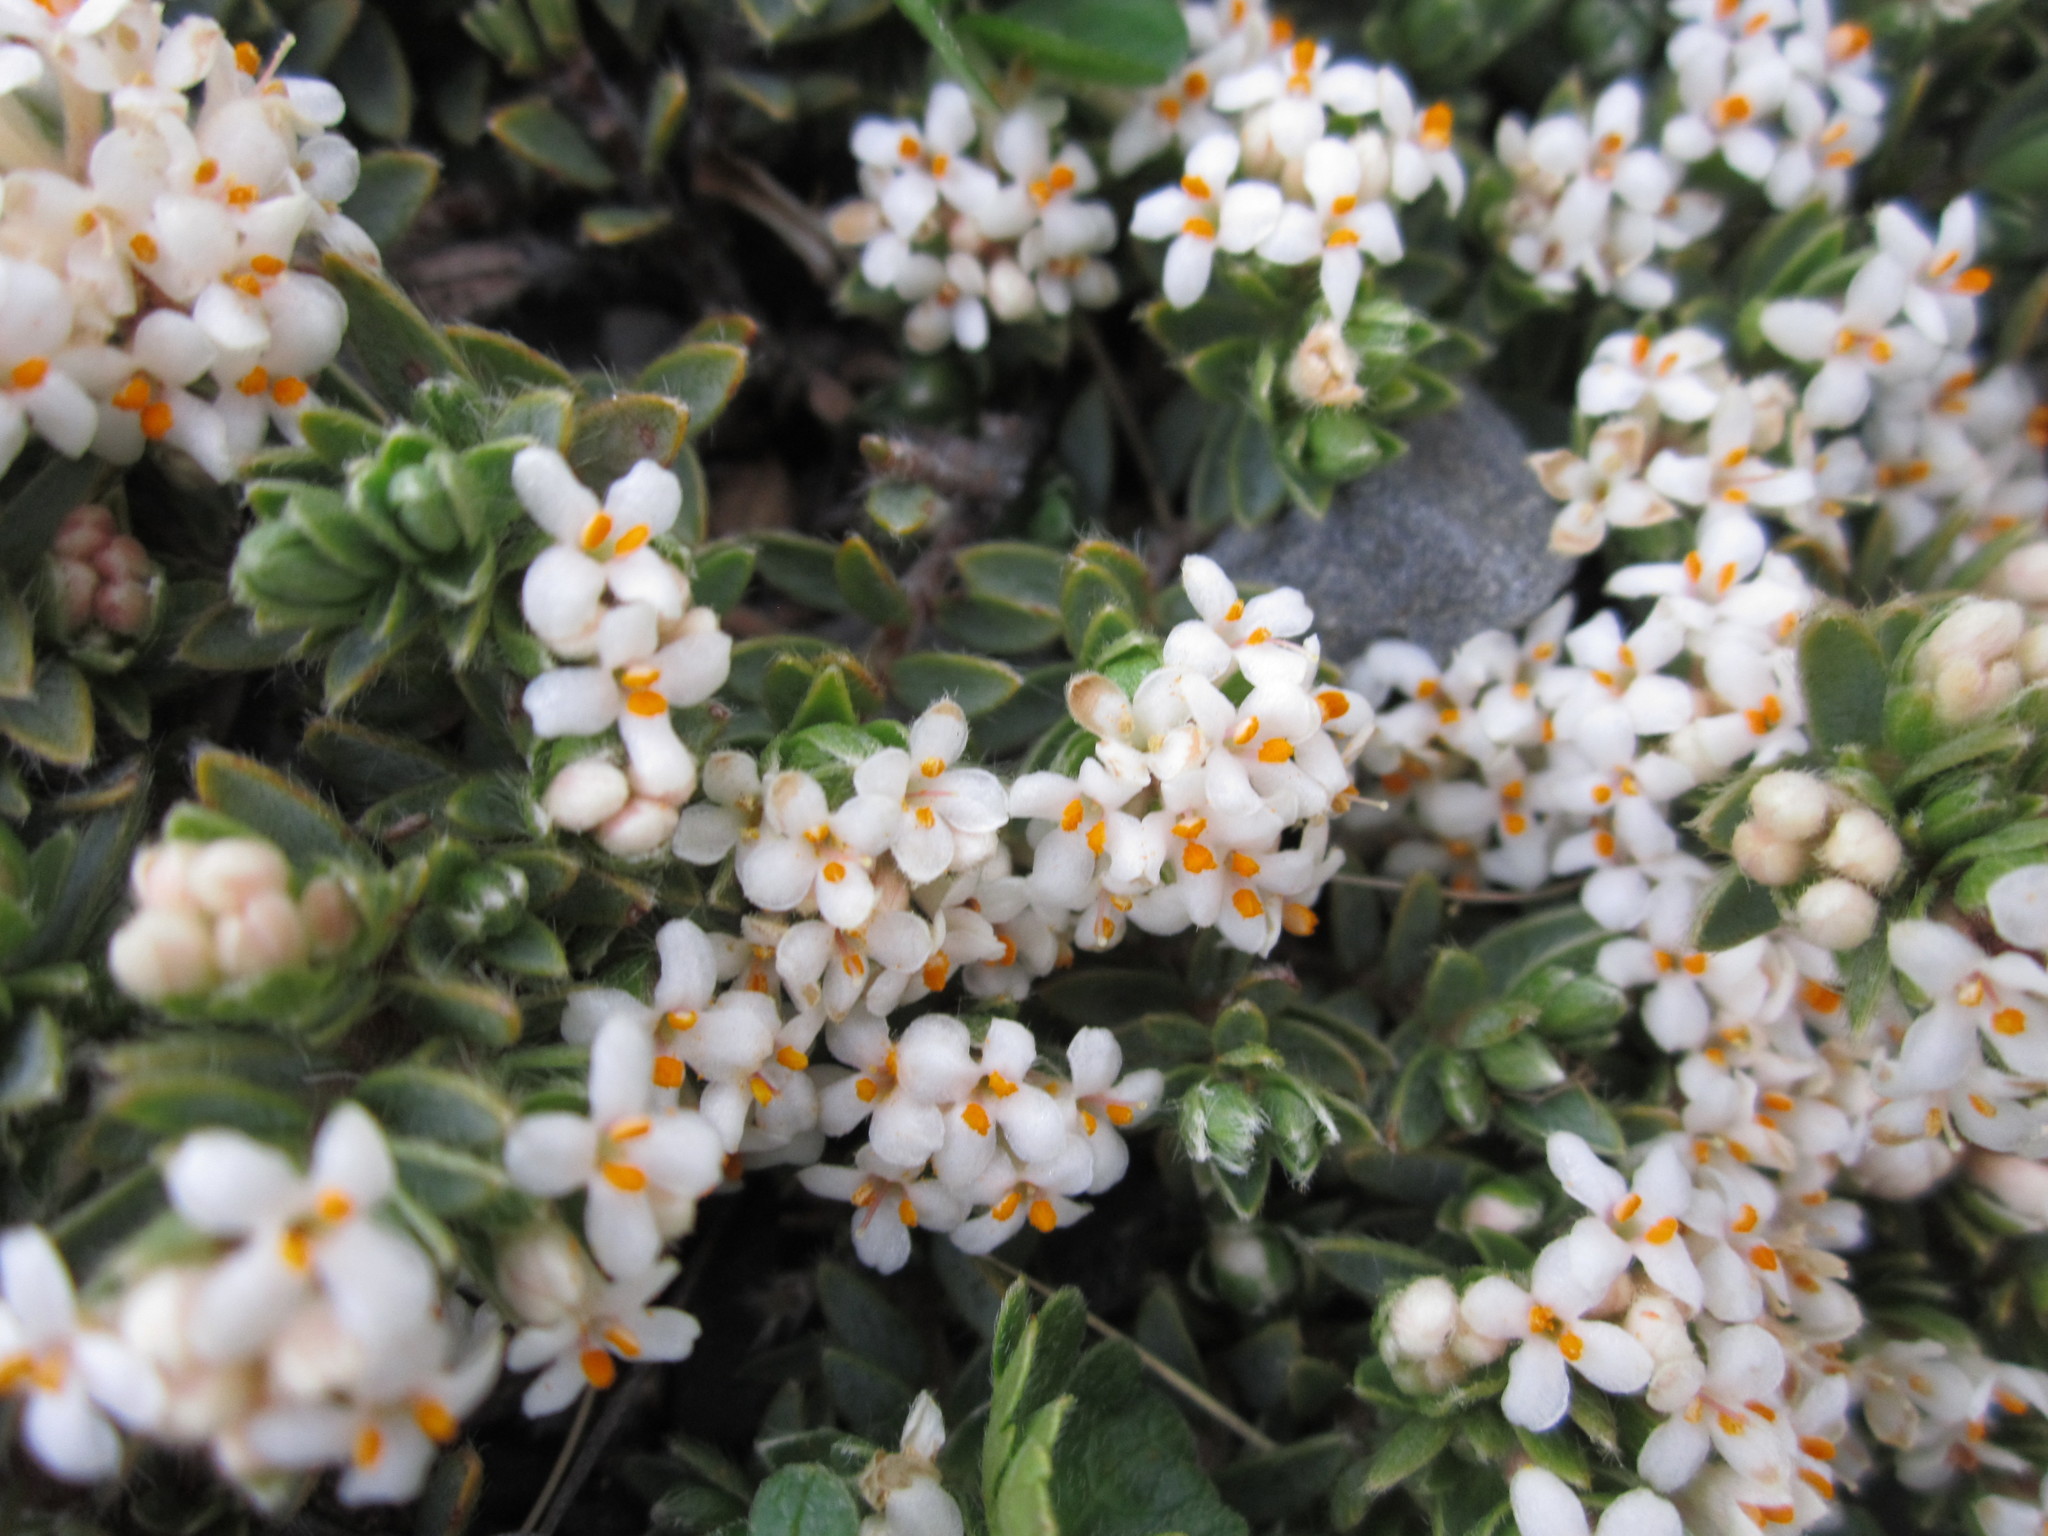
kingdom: Plantae
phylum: Tracheophyta
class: Magnoliopsida
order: Malvales
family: Thymelaeaceae
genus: Pimelea
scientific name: Pimelea prostrata
